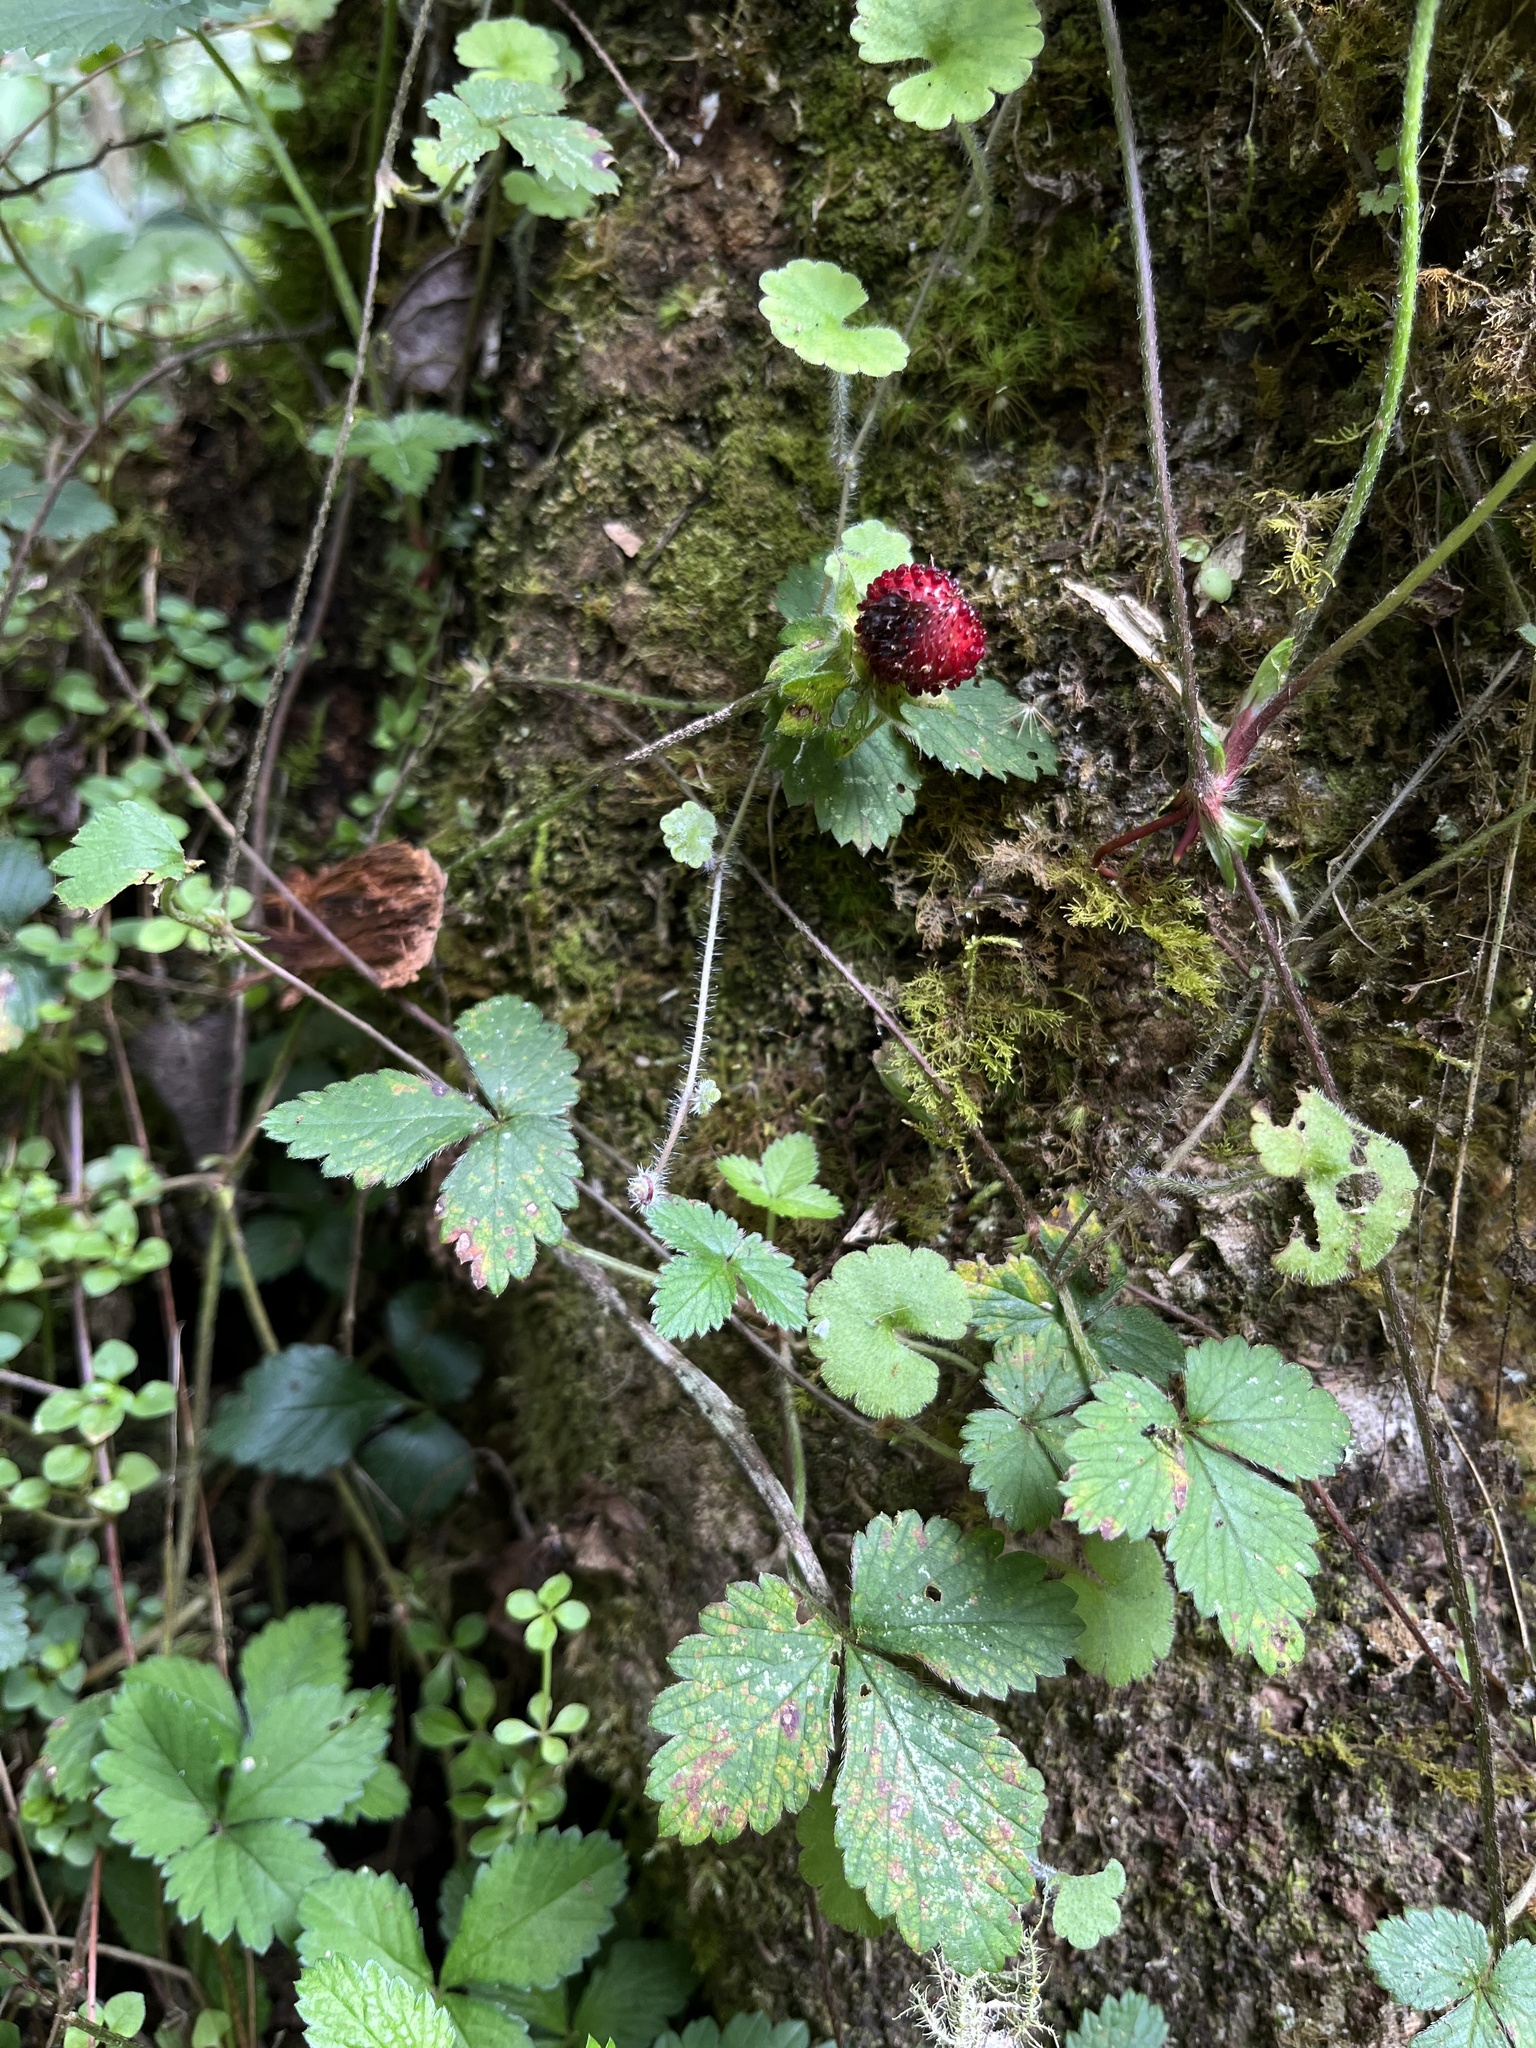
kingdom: Plantae
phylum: Tracheophyta
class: Magnoliopsida
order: Rosales
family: Rosaceae
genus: Potentilla
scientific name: Potentilla indica
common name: Yellow-flowered strawberry
